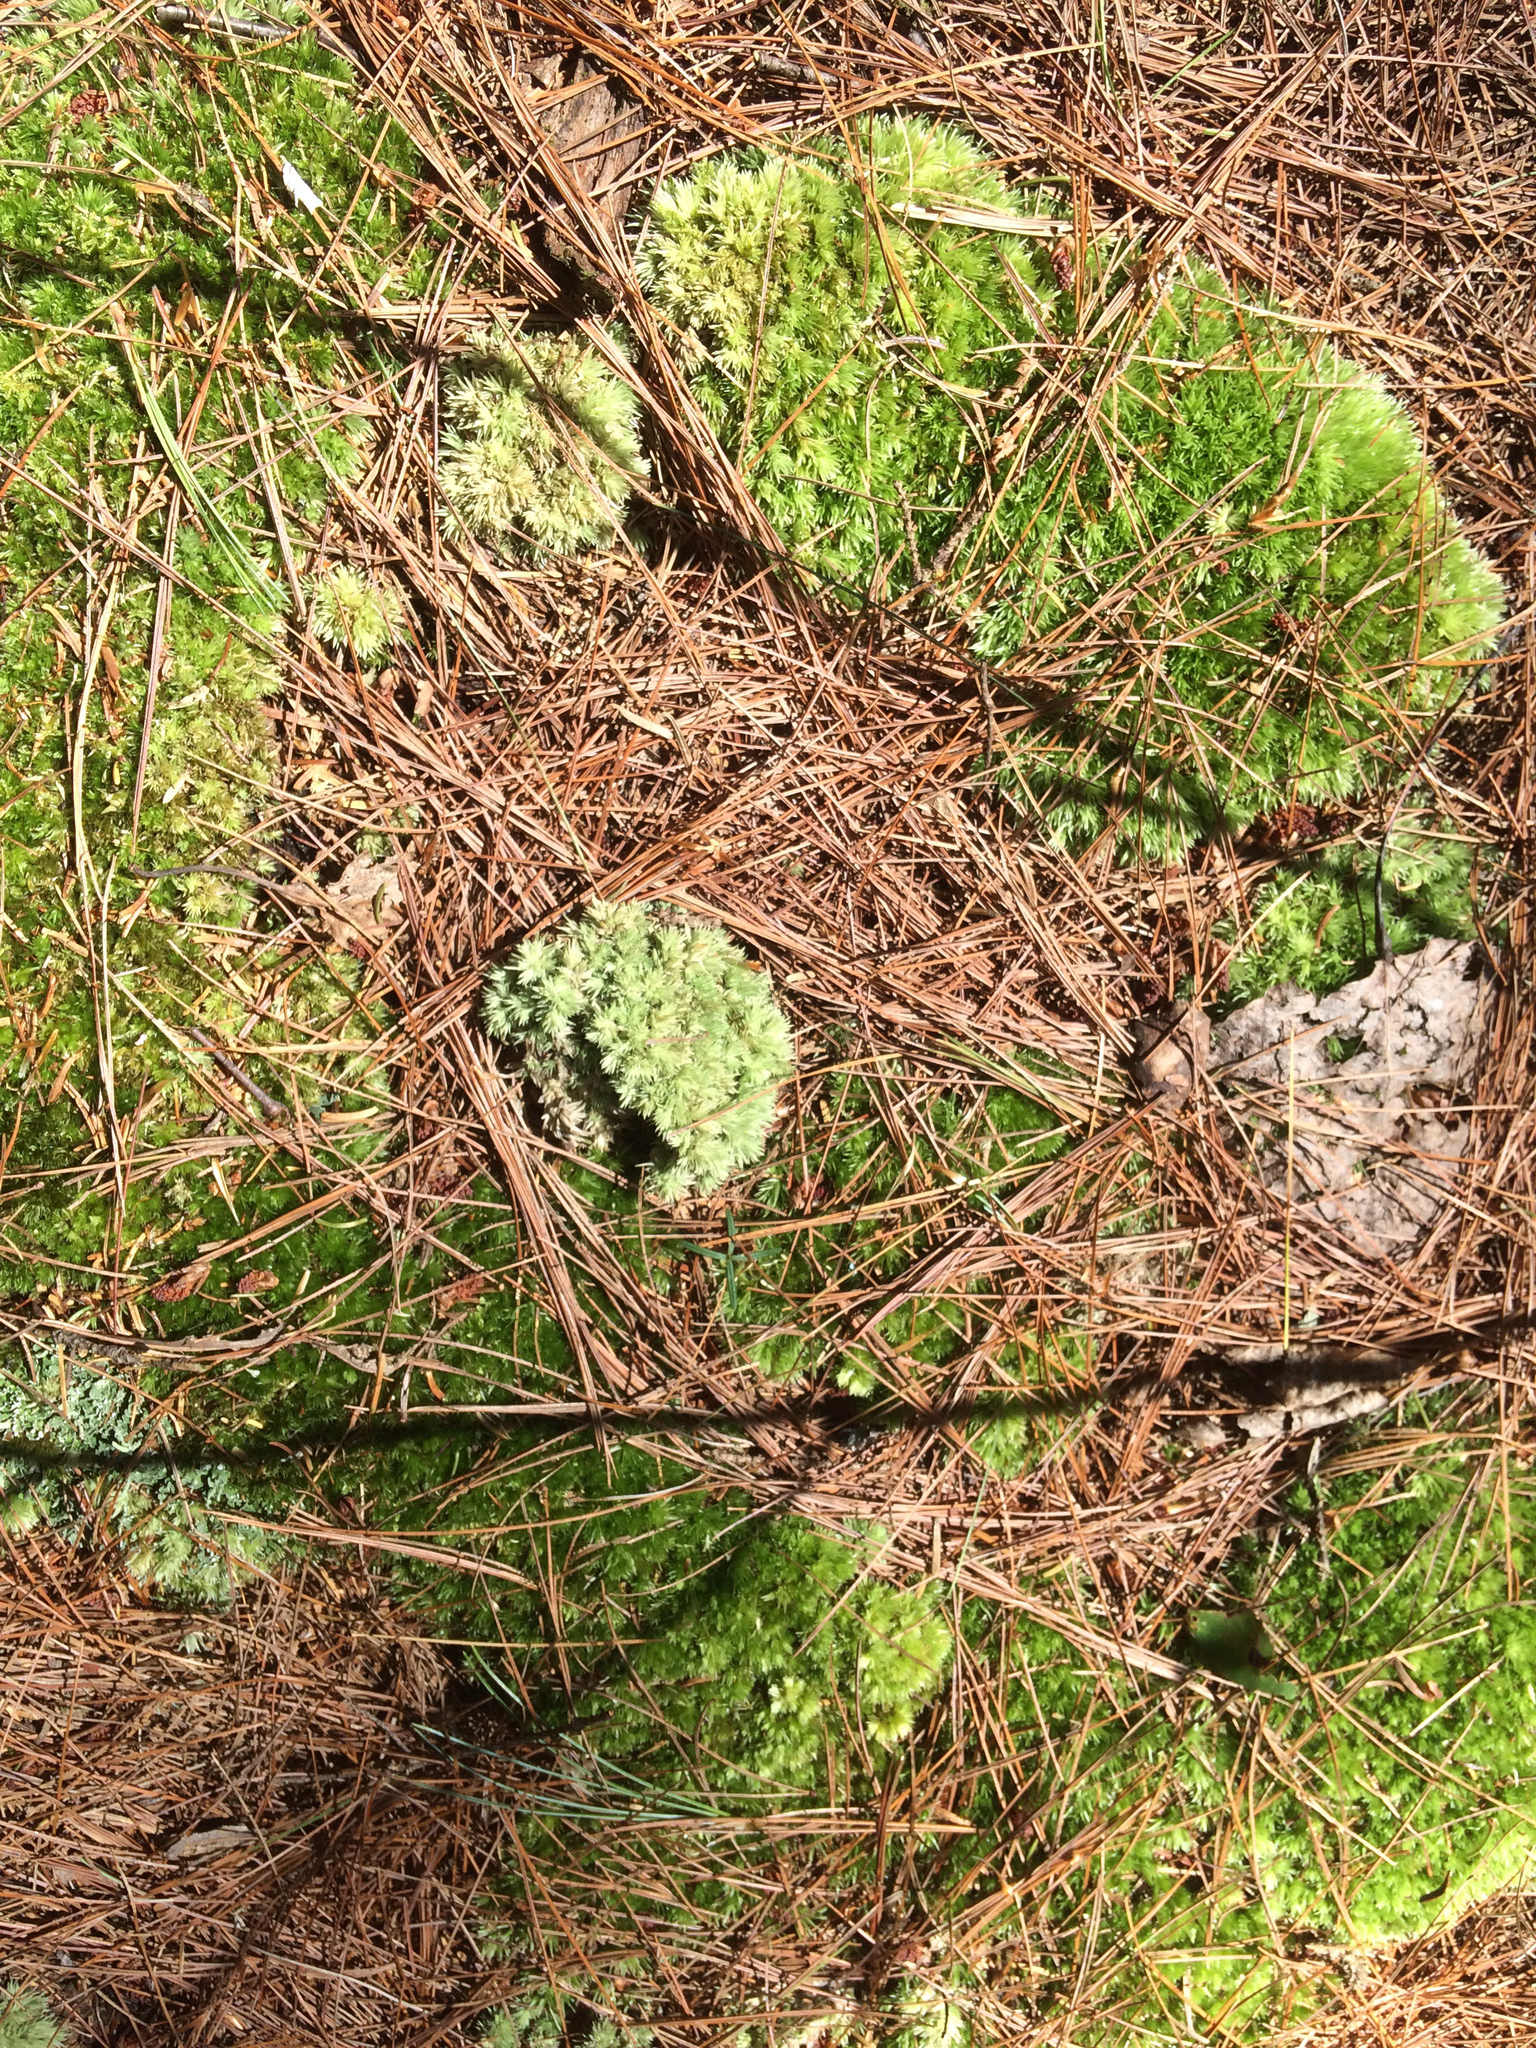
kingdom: Plantae
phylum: Bryophyta
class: Bryopsida
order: Dicranales
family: Leucobryaceae
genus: Leucobryum
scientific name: Leucobryum glaucum
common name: Large white-moss
